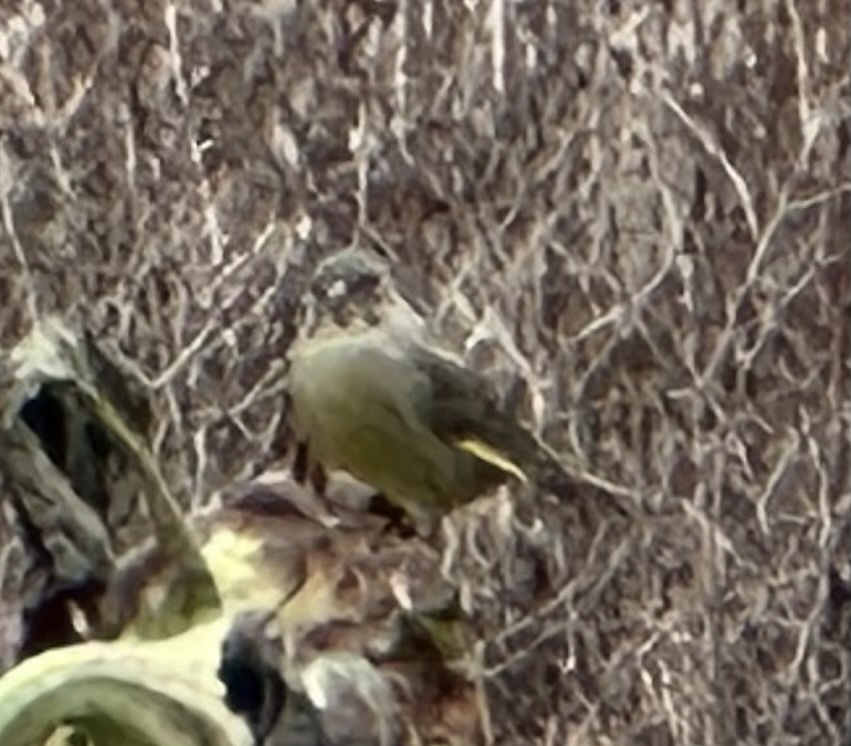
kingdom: Plantae
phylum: Tracheophyta
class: Liliopsida
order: Poales
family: Poaceae
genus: Chloris
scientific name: Chloris chloris
